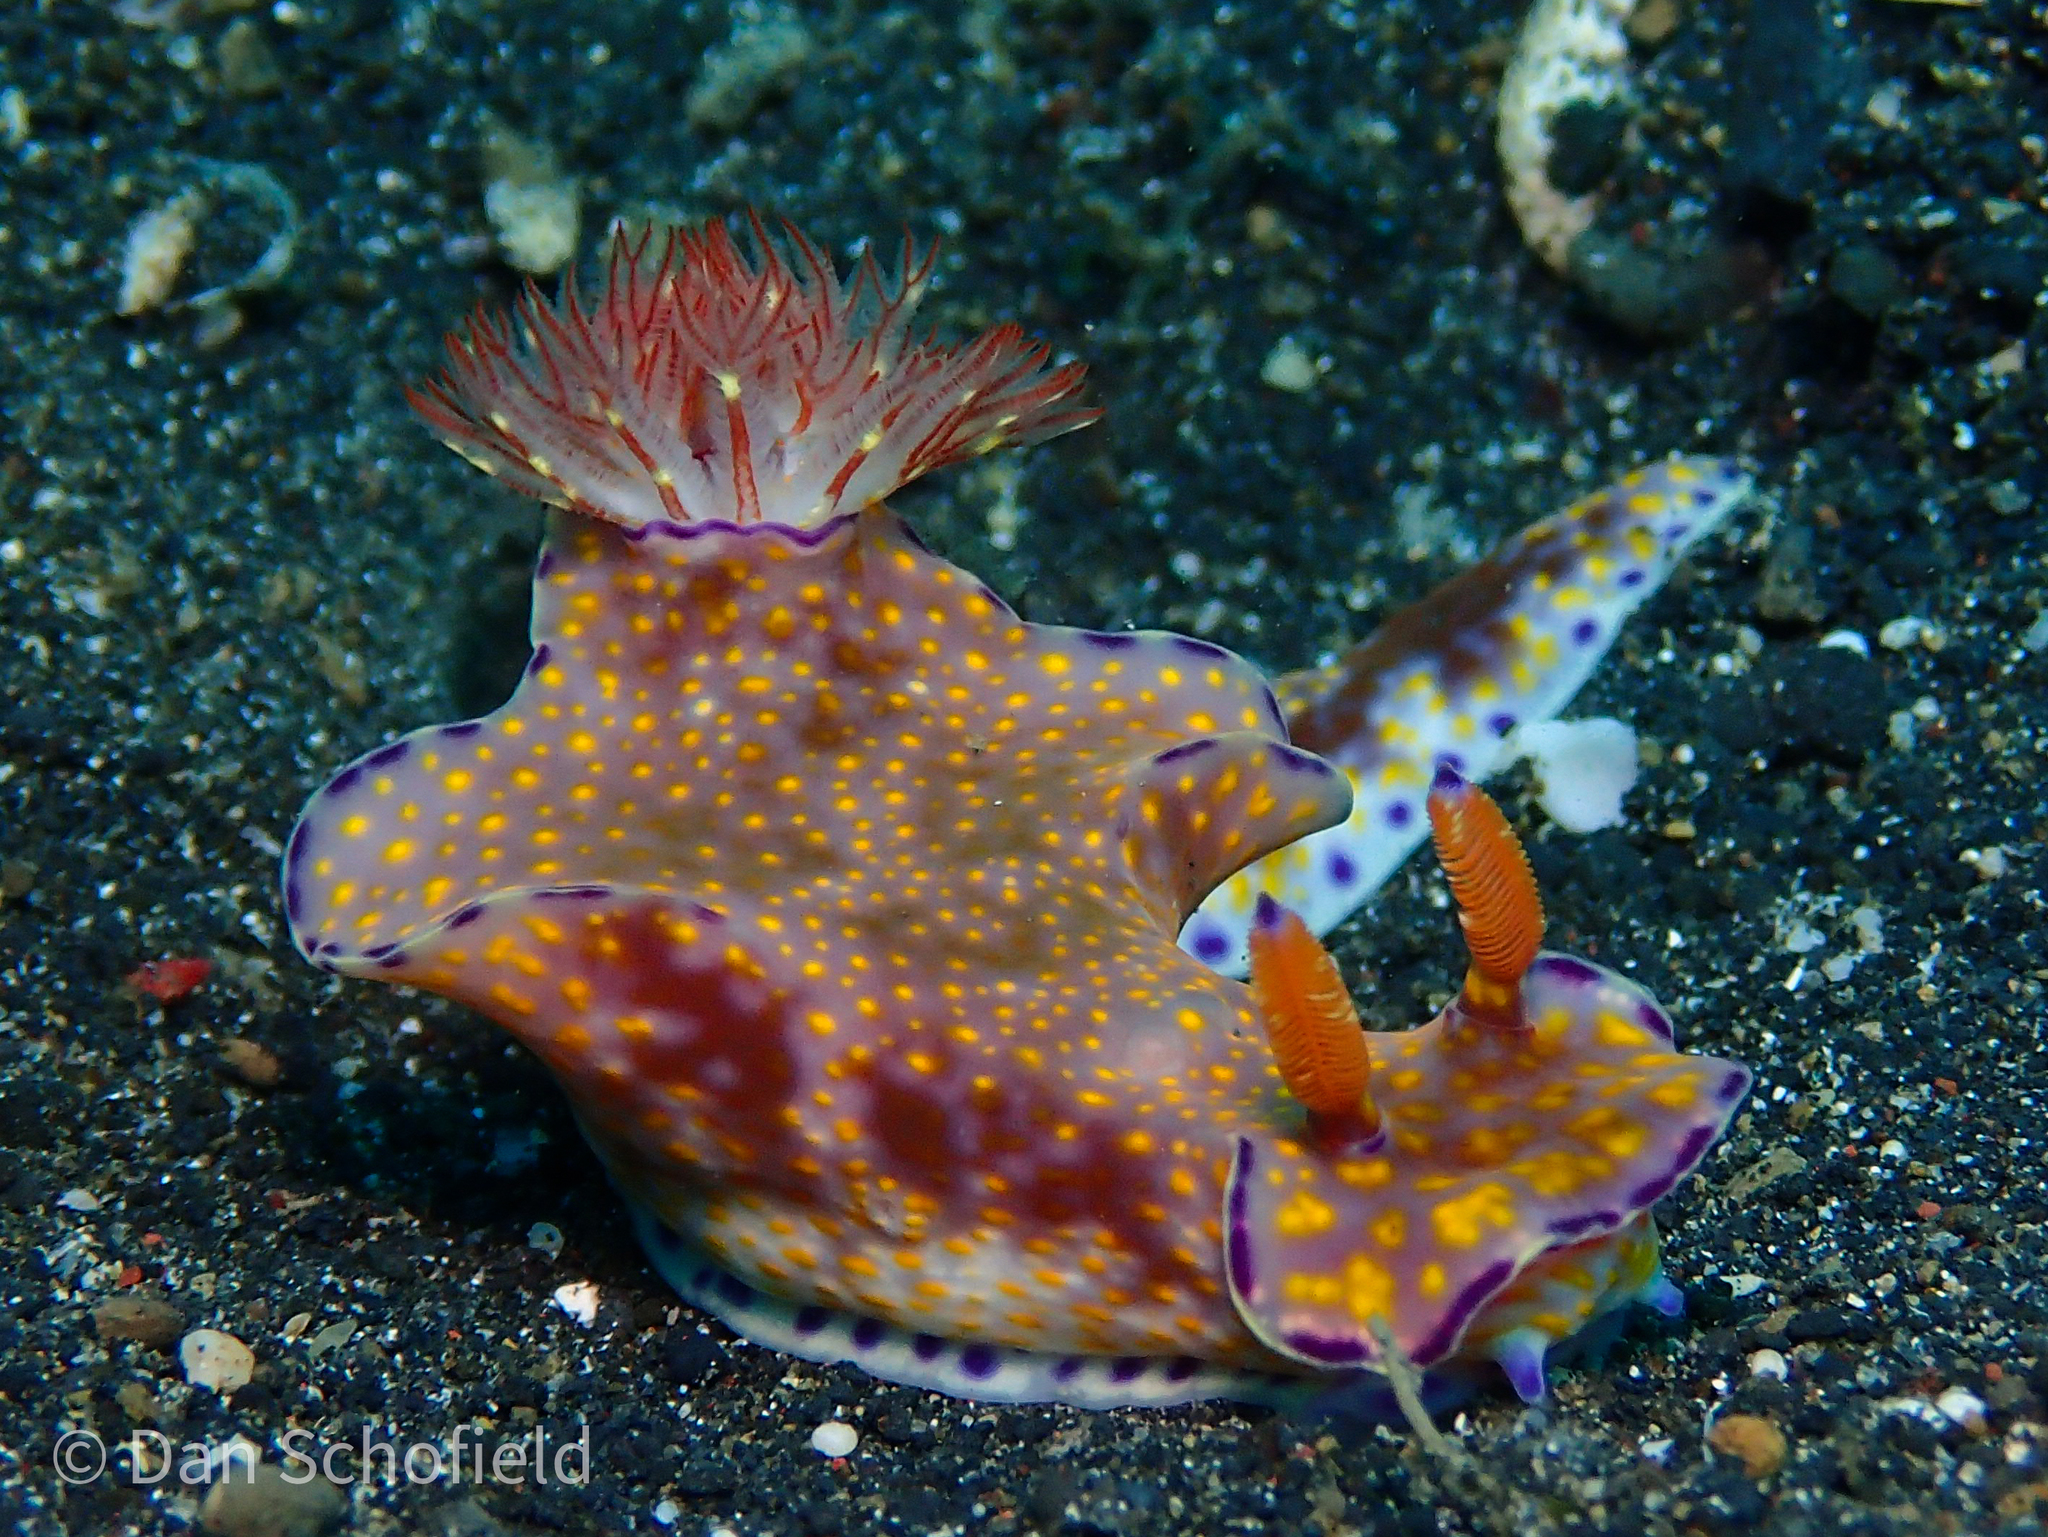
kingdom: Animalia
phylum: Mollusca
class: Gastropoda
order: Nudibranchia
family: Chromodorididae
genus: Ceratosoma
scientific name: Ceratosoma gracillimum
